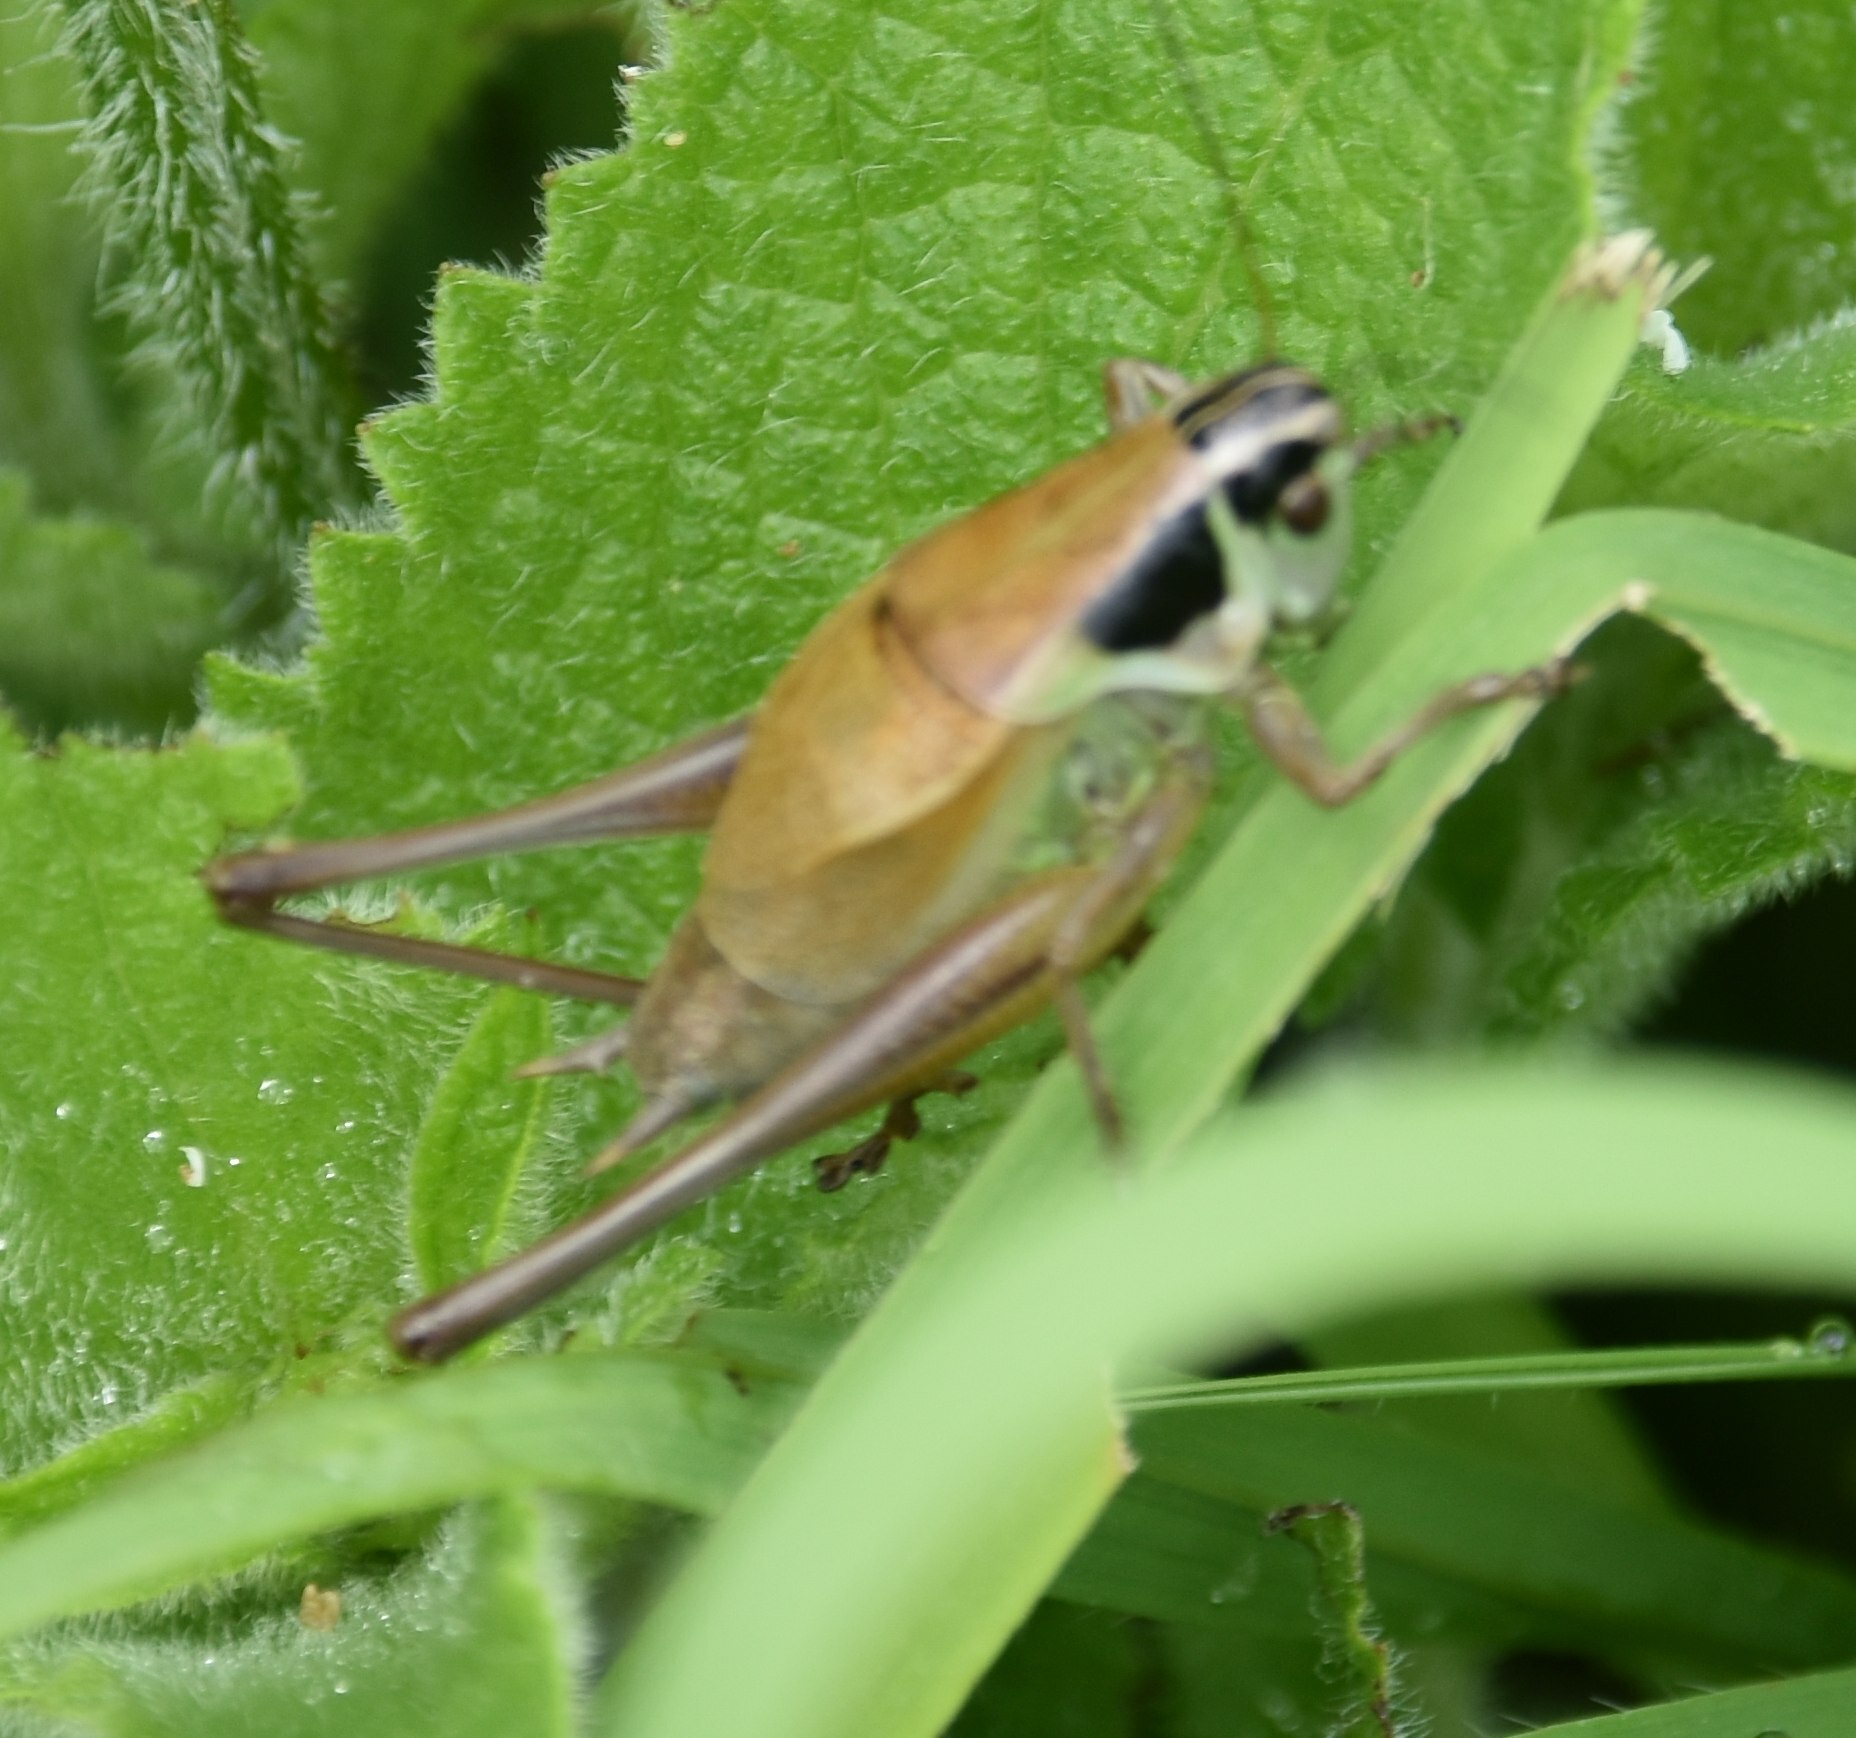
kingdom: Animalia
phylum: Arthropoda
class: Insecta
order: Orthoptera
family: Tettigoniidae
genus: Pholidoptera
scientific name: Pholidoptera frivaldszkyi
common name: Green dark bush-cricket
